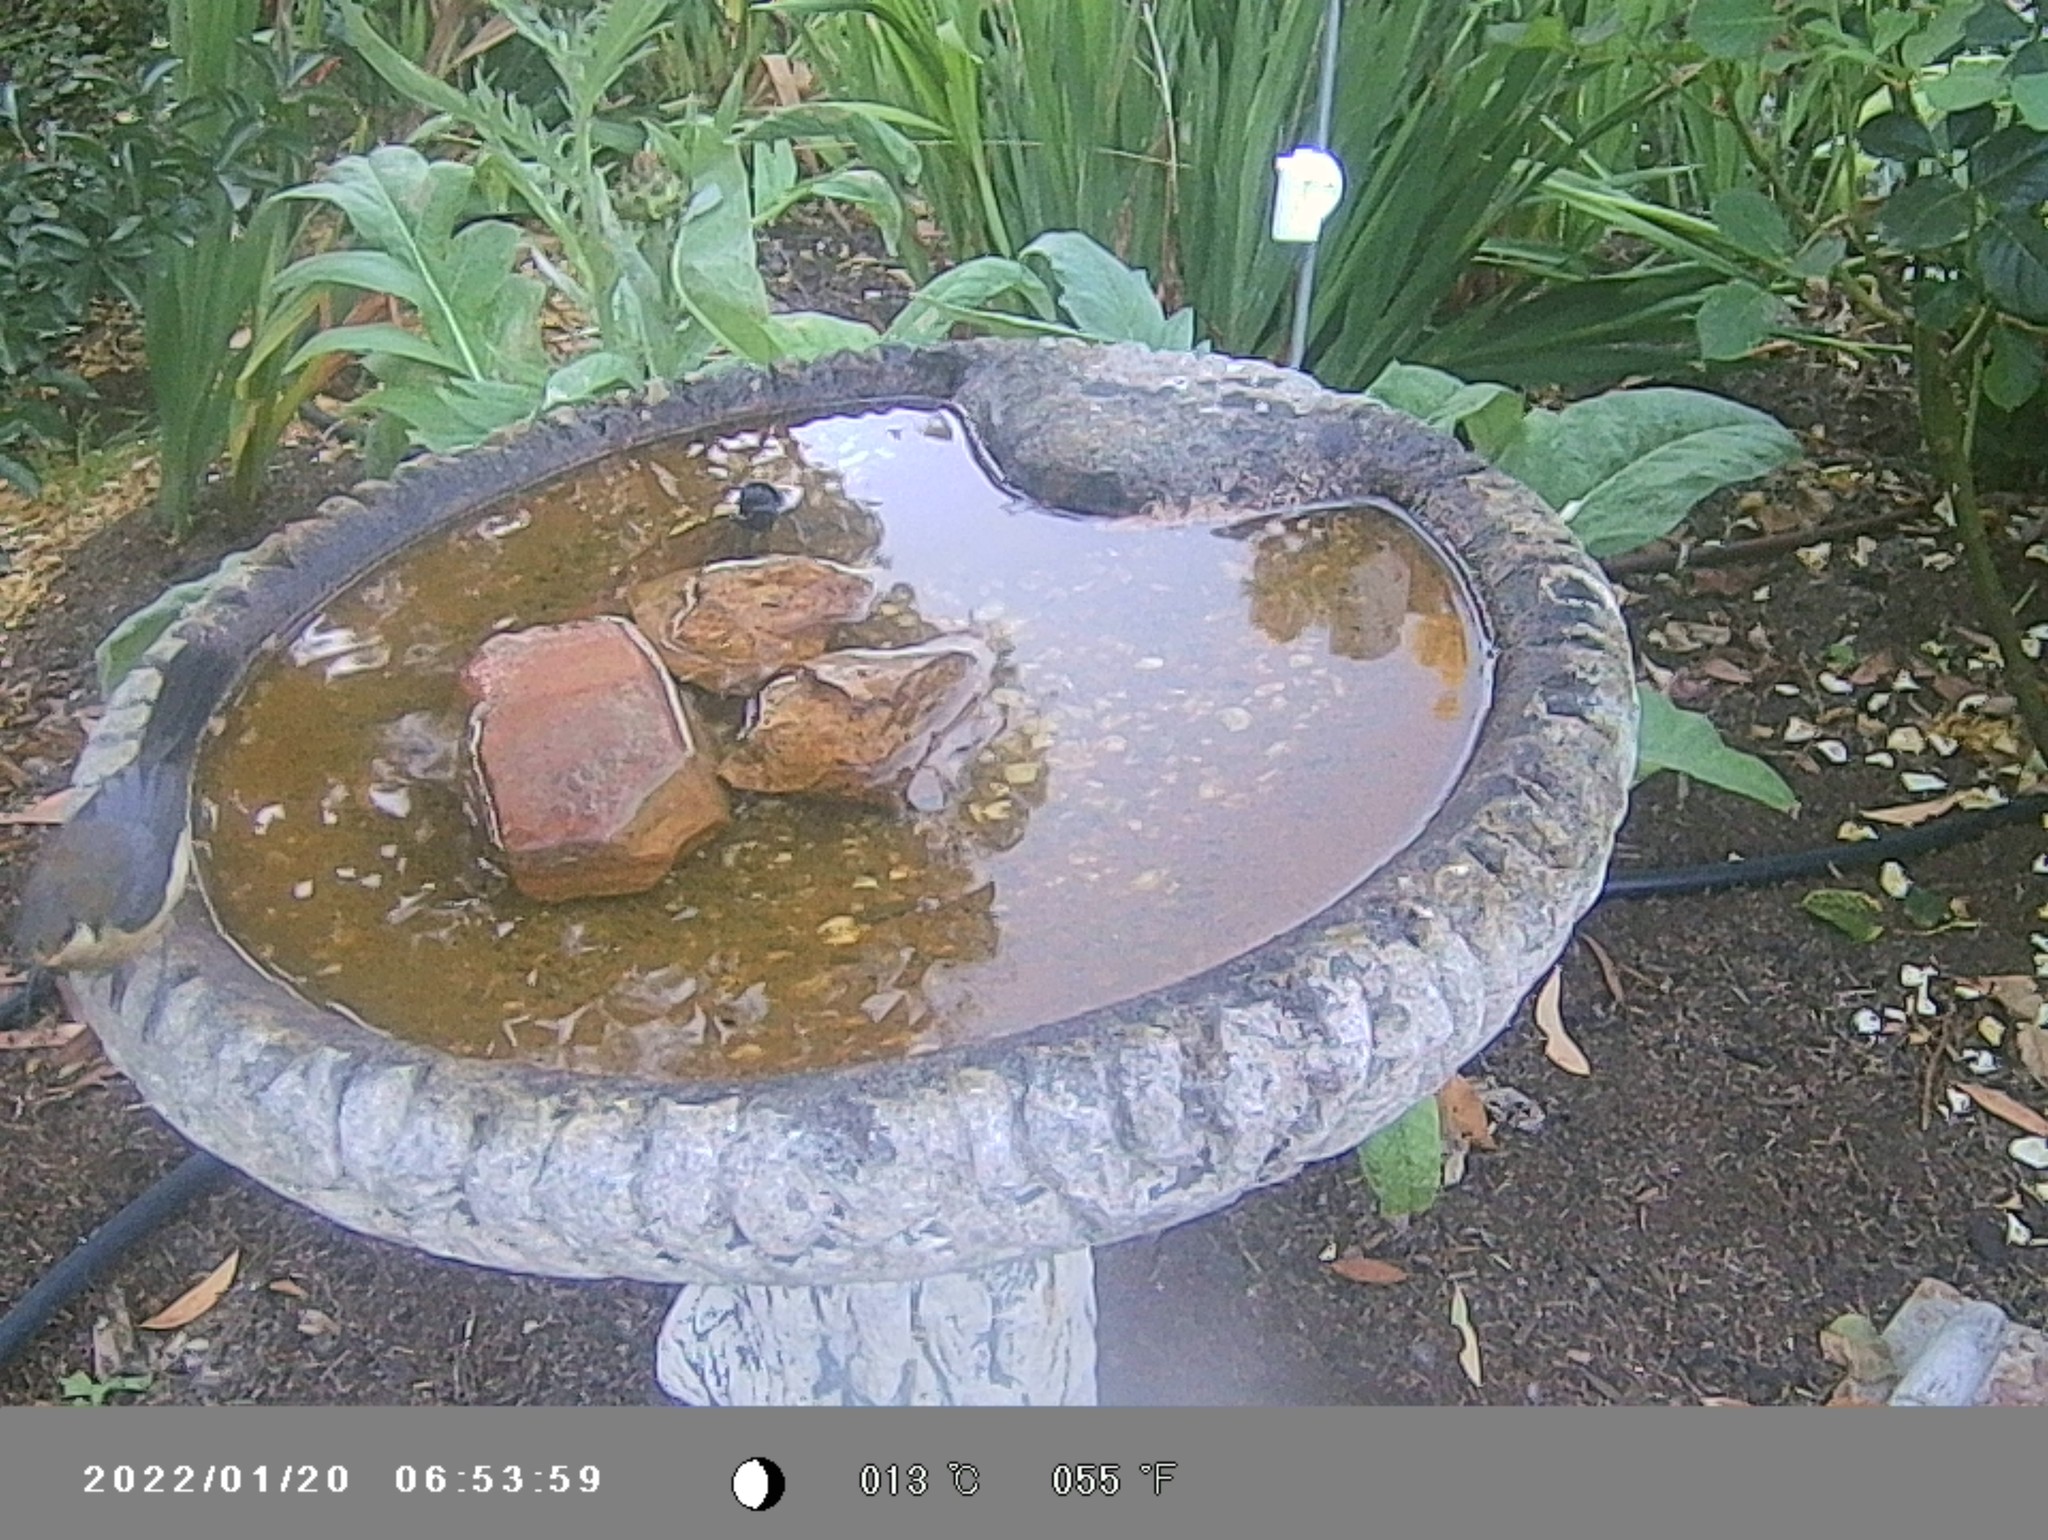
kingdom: Animalia
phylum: Chordata
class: Aves
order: Passeriformes
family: Meliphagidae
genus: Acanthorhynchus
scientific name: Acanthorhynchus tenuirostris
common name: Eastern spinebill
